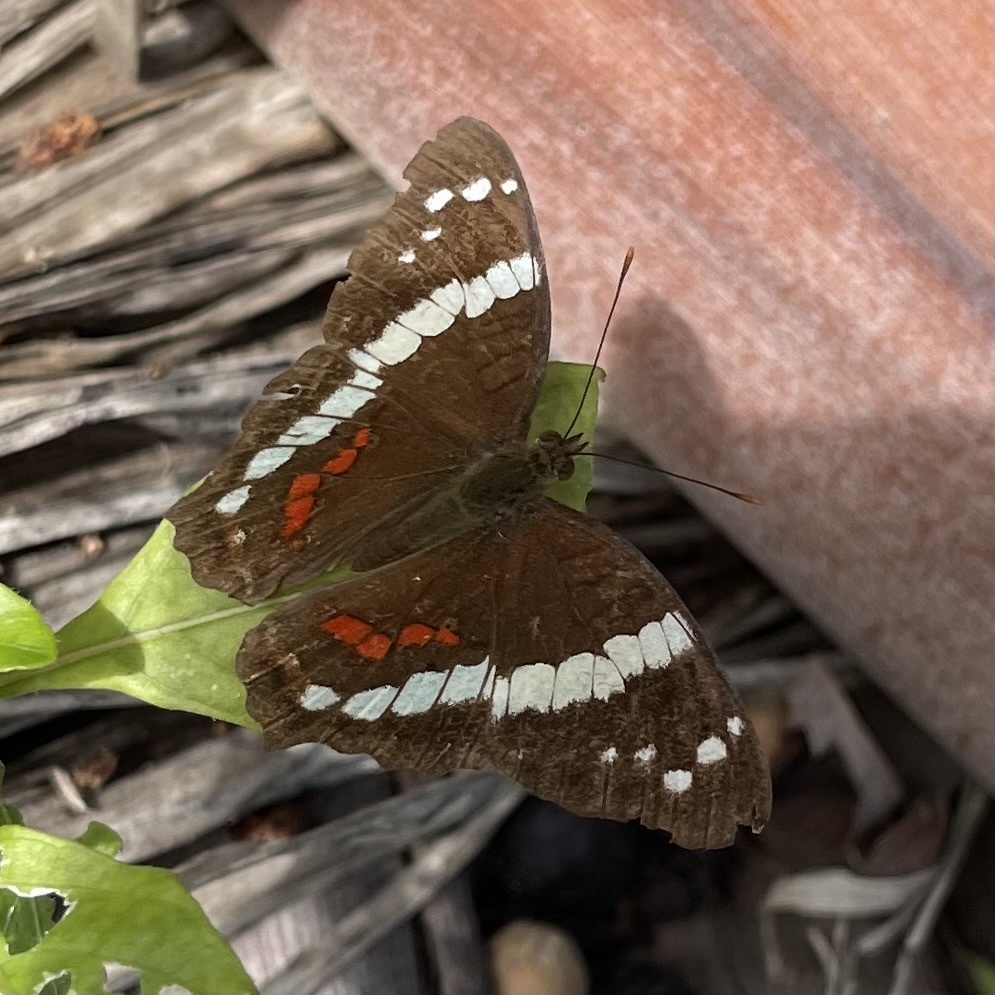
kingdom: Animalia
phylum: Arthropoda
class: Insecta
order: Lepidoptera
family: Nymphalidae
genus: Anartia
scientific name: Anartia fatima
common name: Banded peacock
